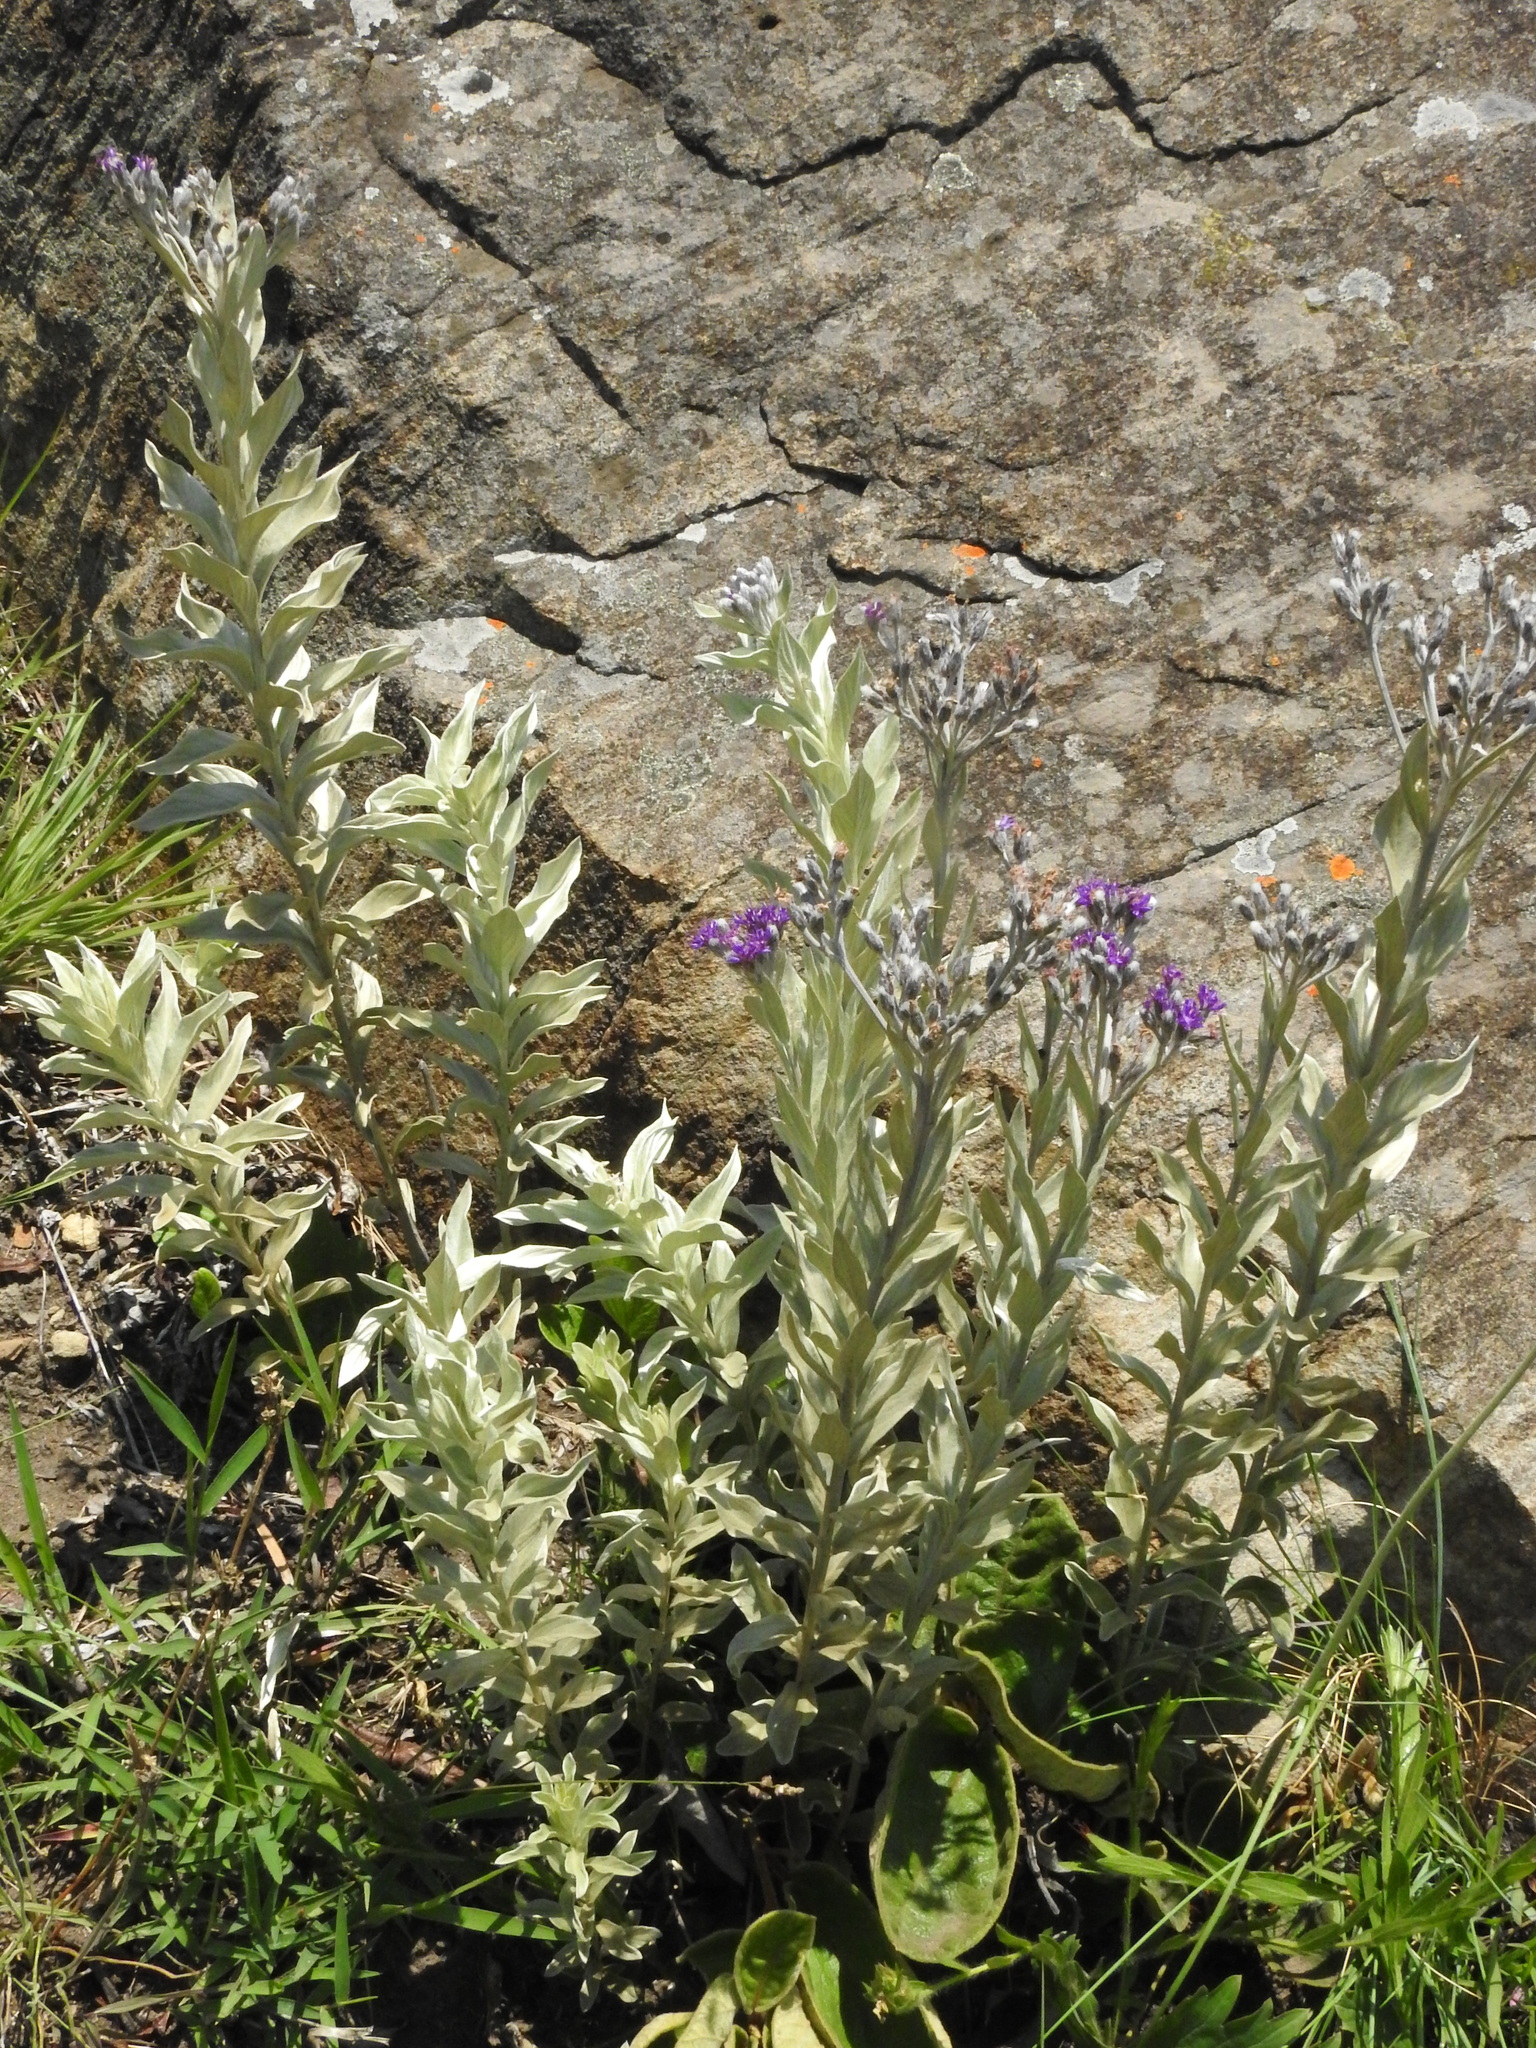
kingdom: Plantae
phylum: Tracheophyta
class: Magnoliopsida
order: Asterales
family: Asteraceae
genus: Hilliardiella
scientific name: Hilliardiella aristata
